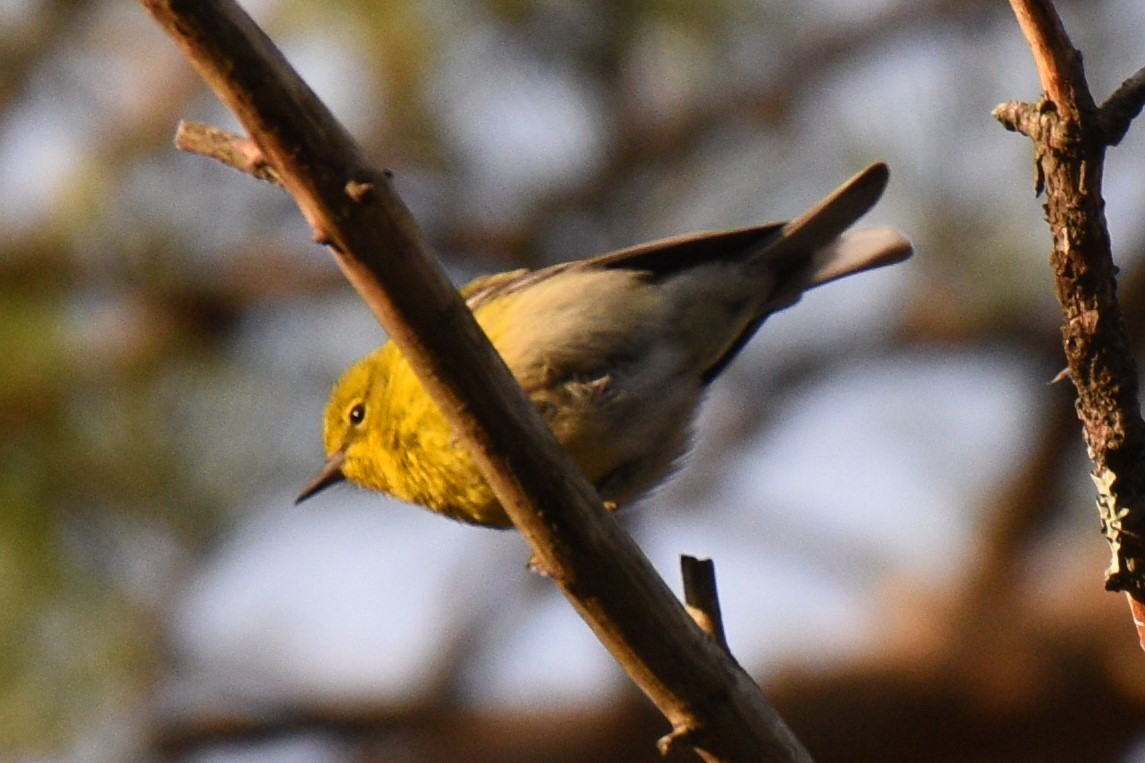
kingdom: Animalia
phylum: Chordata
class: Aves
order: Passeriformes
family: Parulidae
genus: Setophaga
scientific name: Setophaga pinus
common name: Pine warbler
